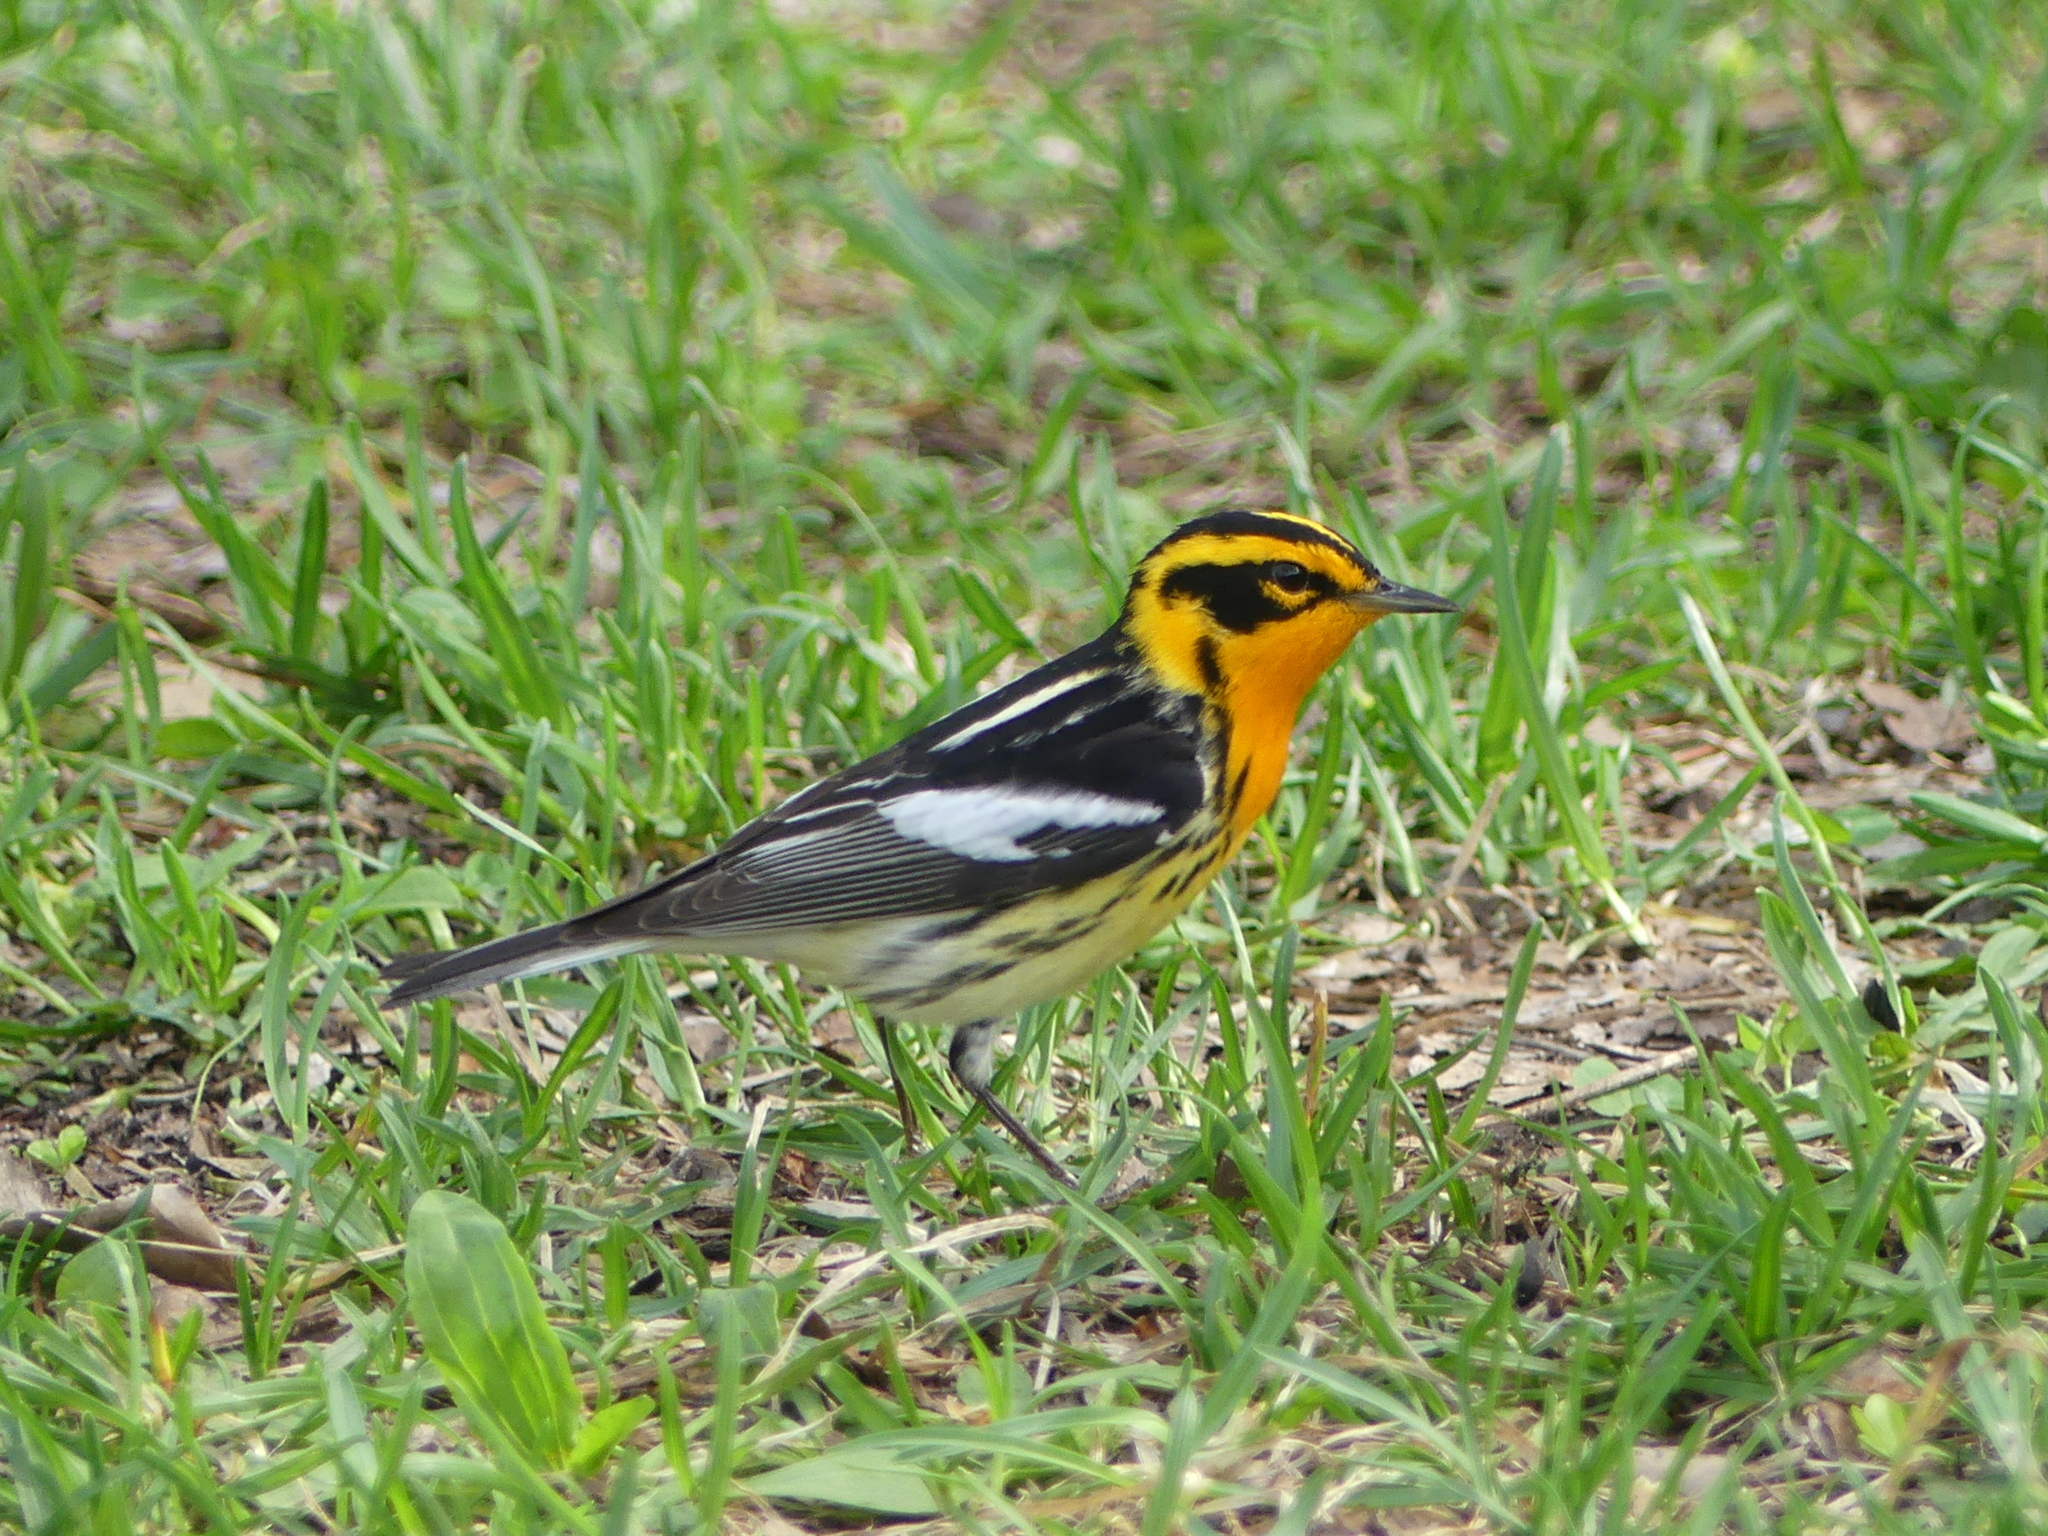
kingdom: Animalia
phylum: Chordata
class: Aves
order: Passeriformes
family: Parulidae
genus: Setophaga
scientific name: Setophaga fusca
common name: Blackburnian warbler
